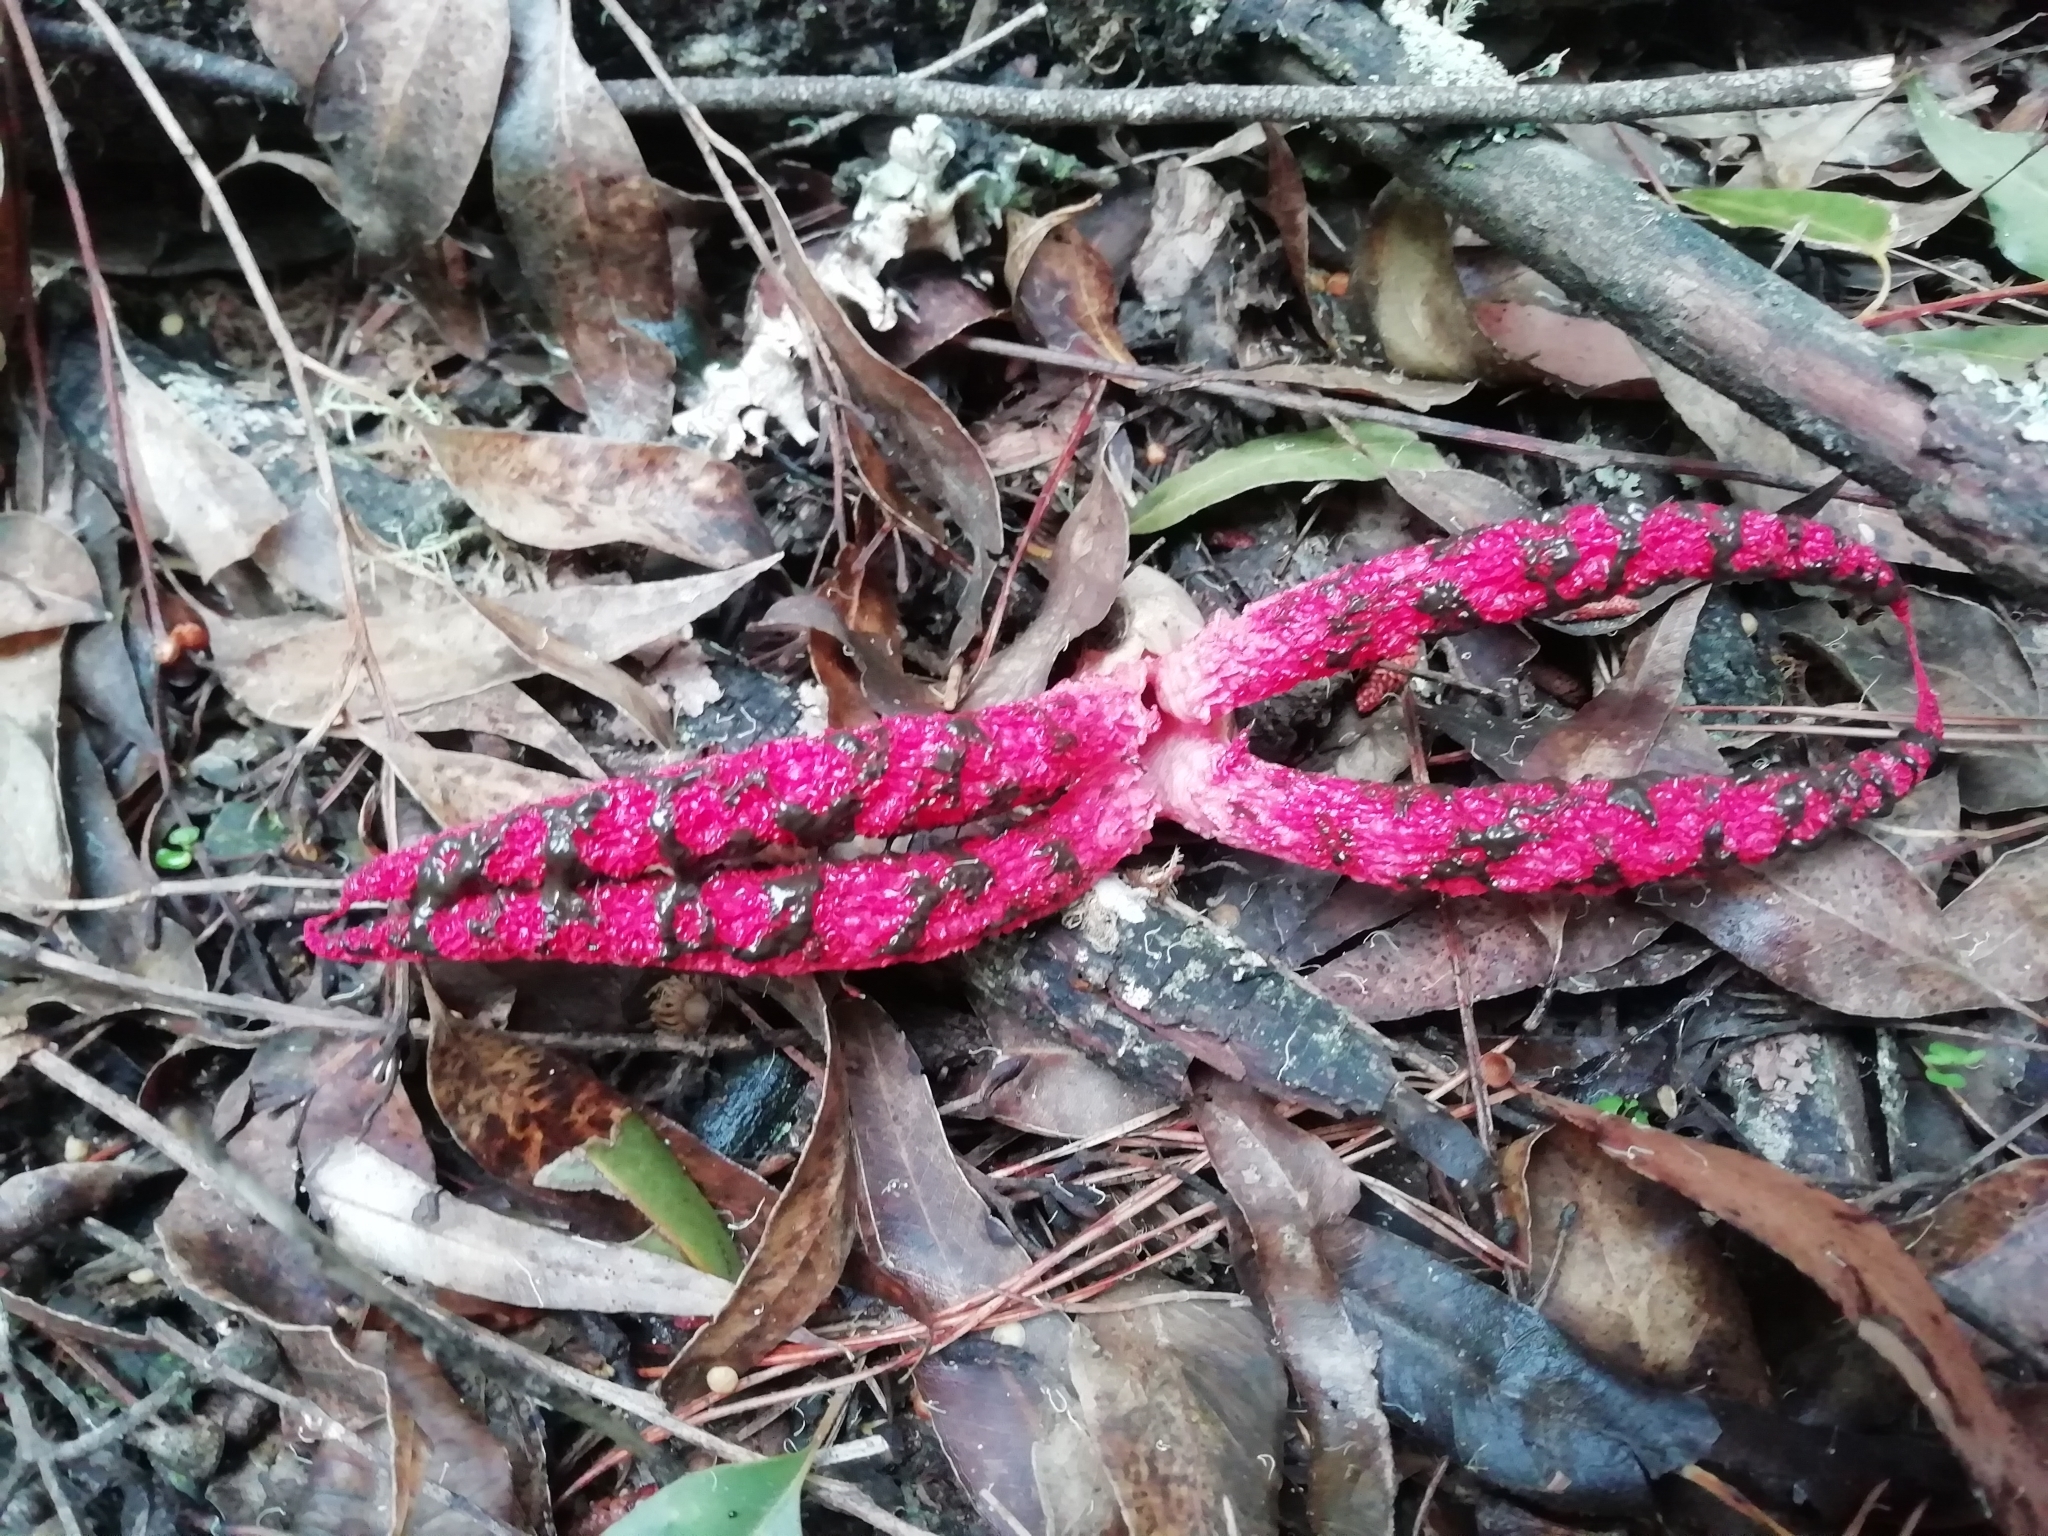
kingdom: Fungi
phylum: Basidiomycota
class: Agaricomycetes
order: Phallales
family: Phallaceae
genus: Clathrus
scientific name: Clathrus archeri
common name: Devil's fingers
